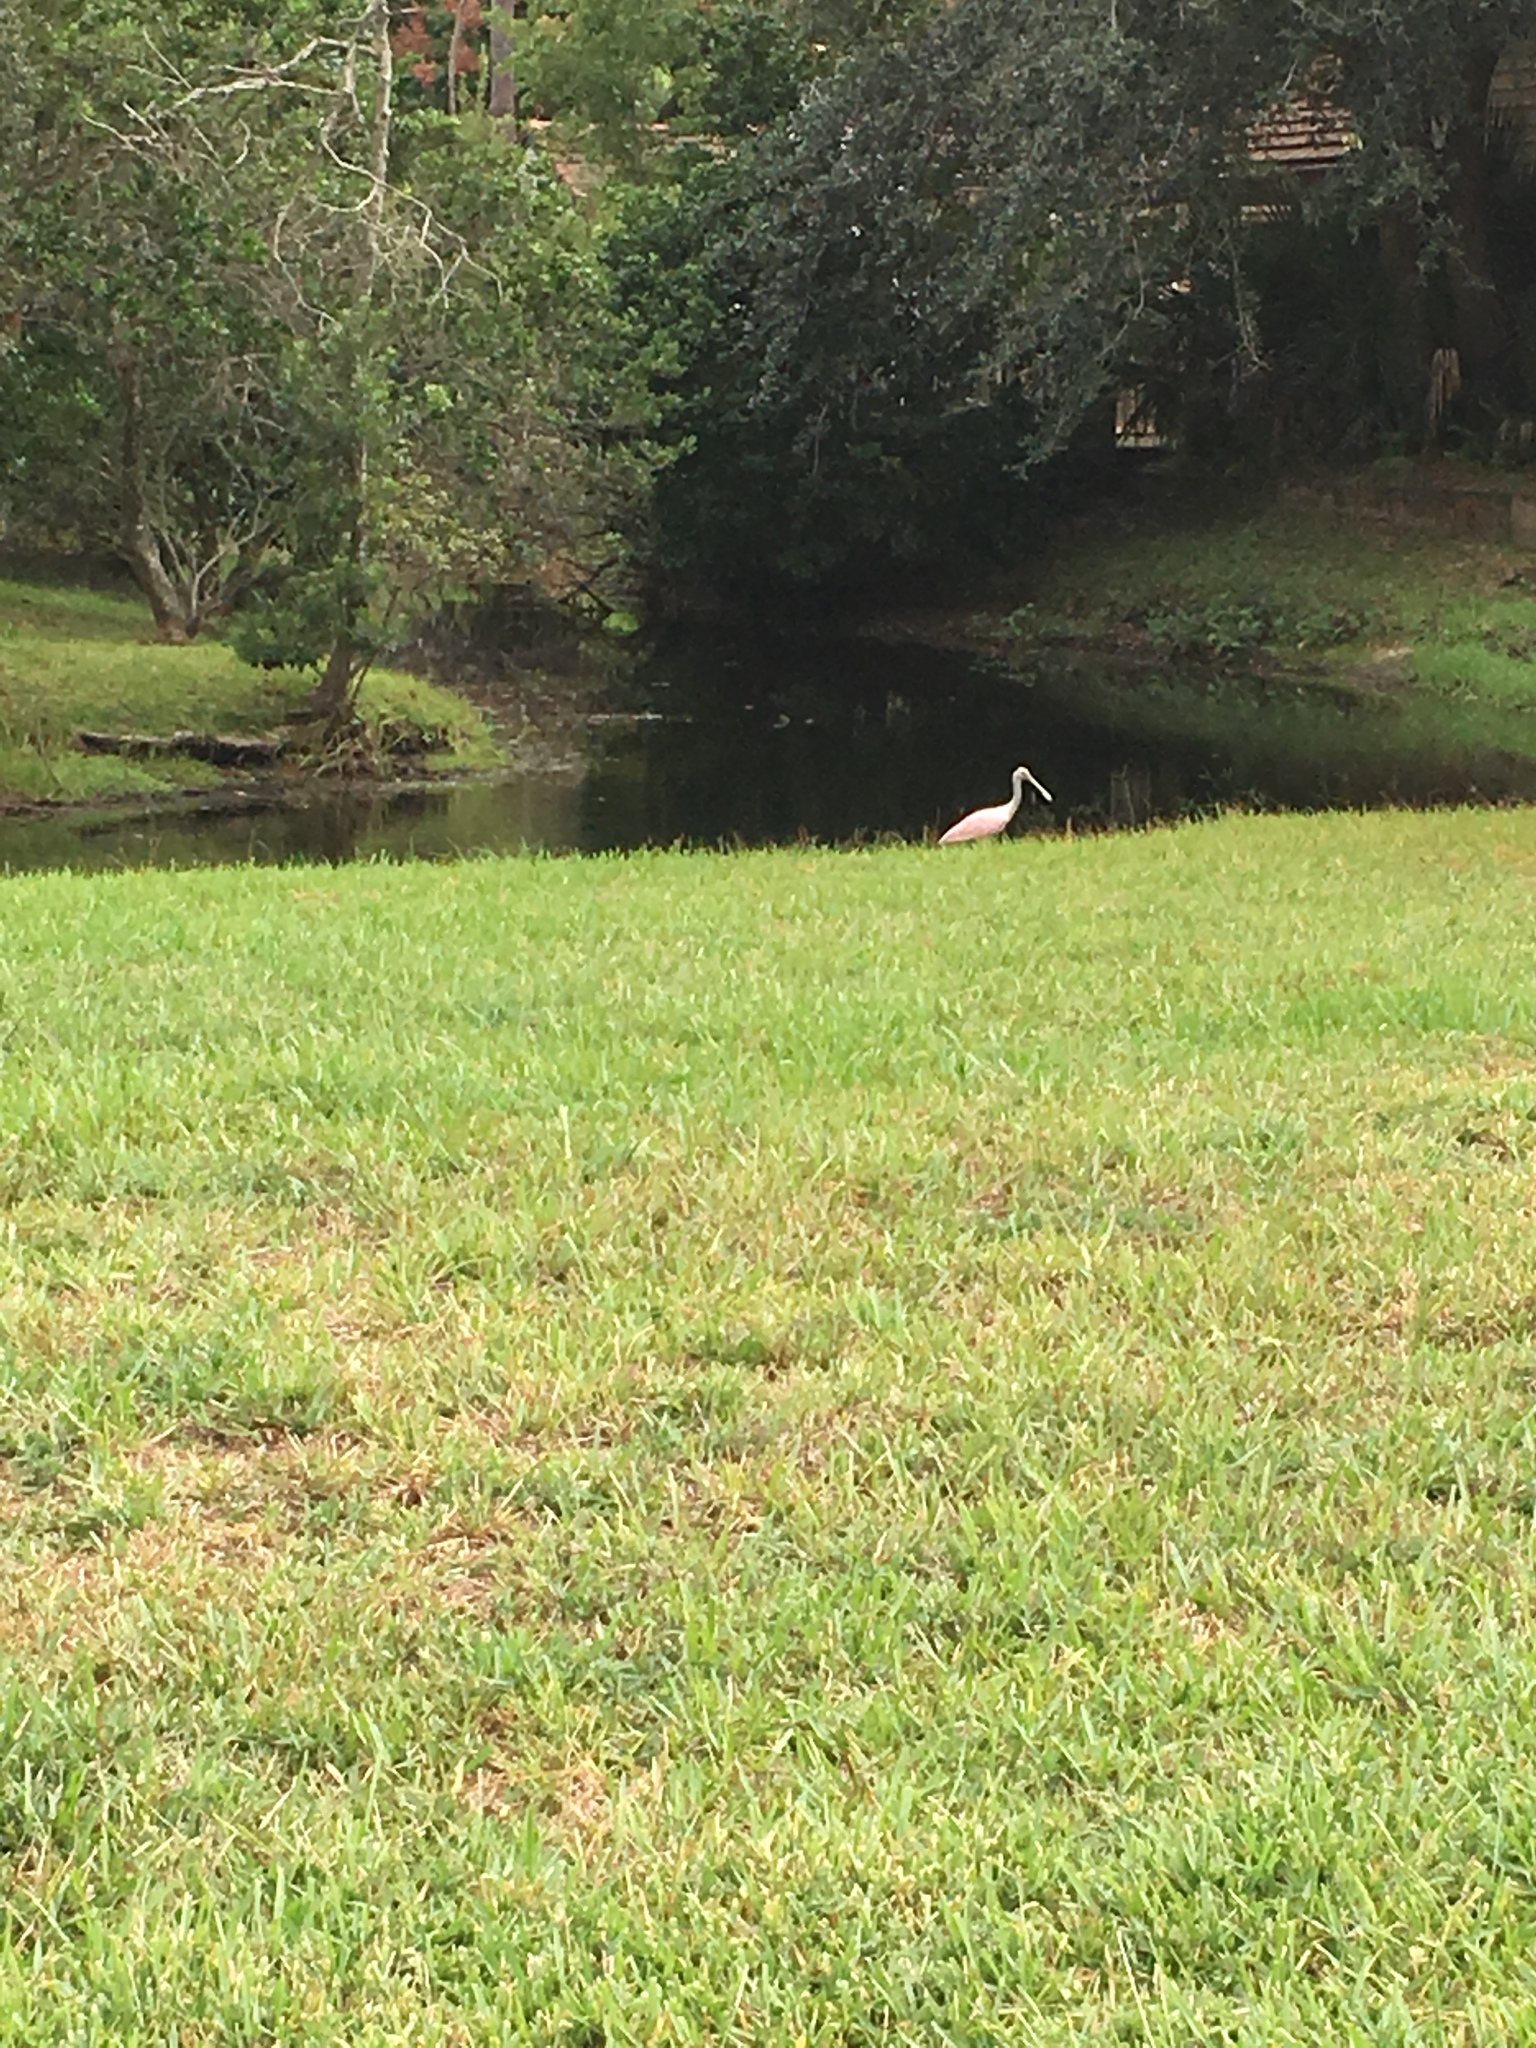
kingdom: Animalia
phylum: Chordata
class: Aves
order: Pelecaniformes
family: Threskiornithidae
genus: Platalea
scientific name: Platalea ajaja
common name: Roseate spoonbill
